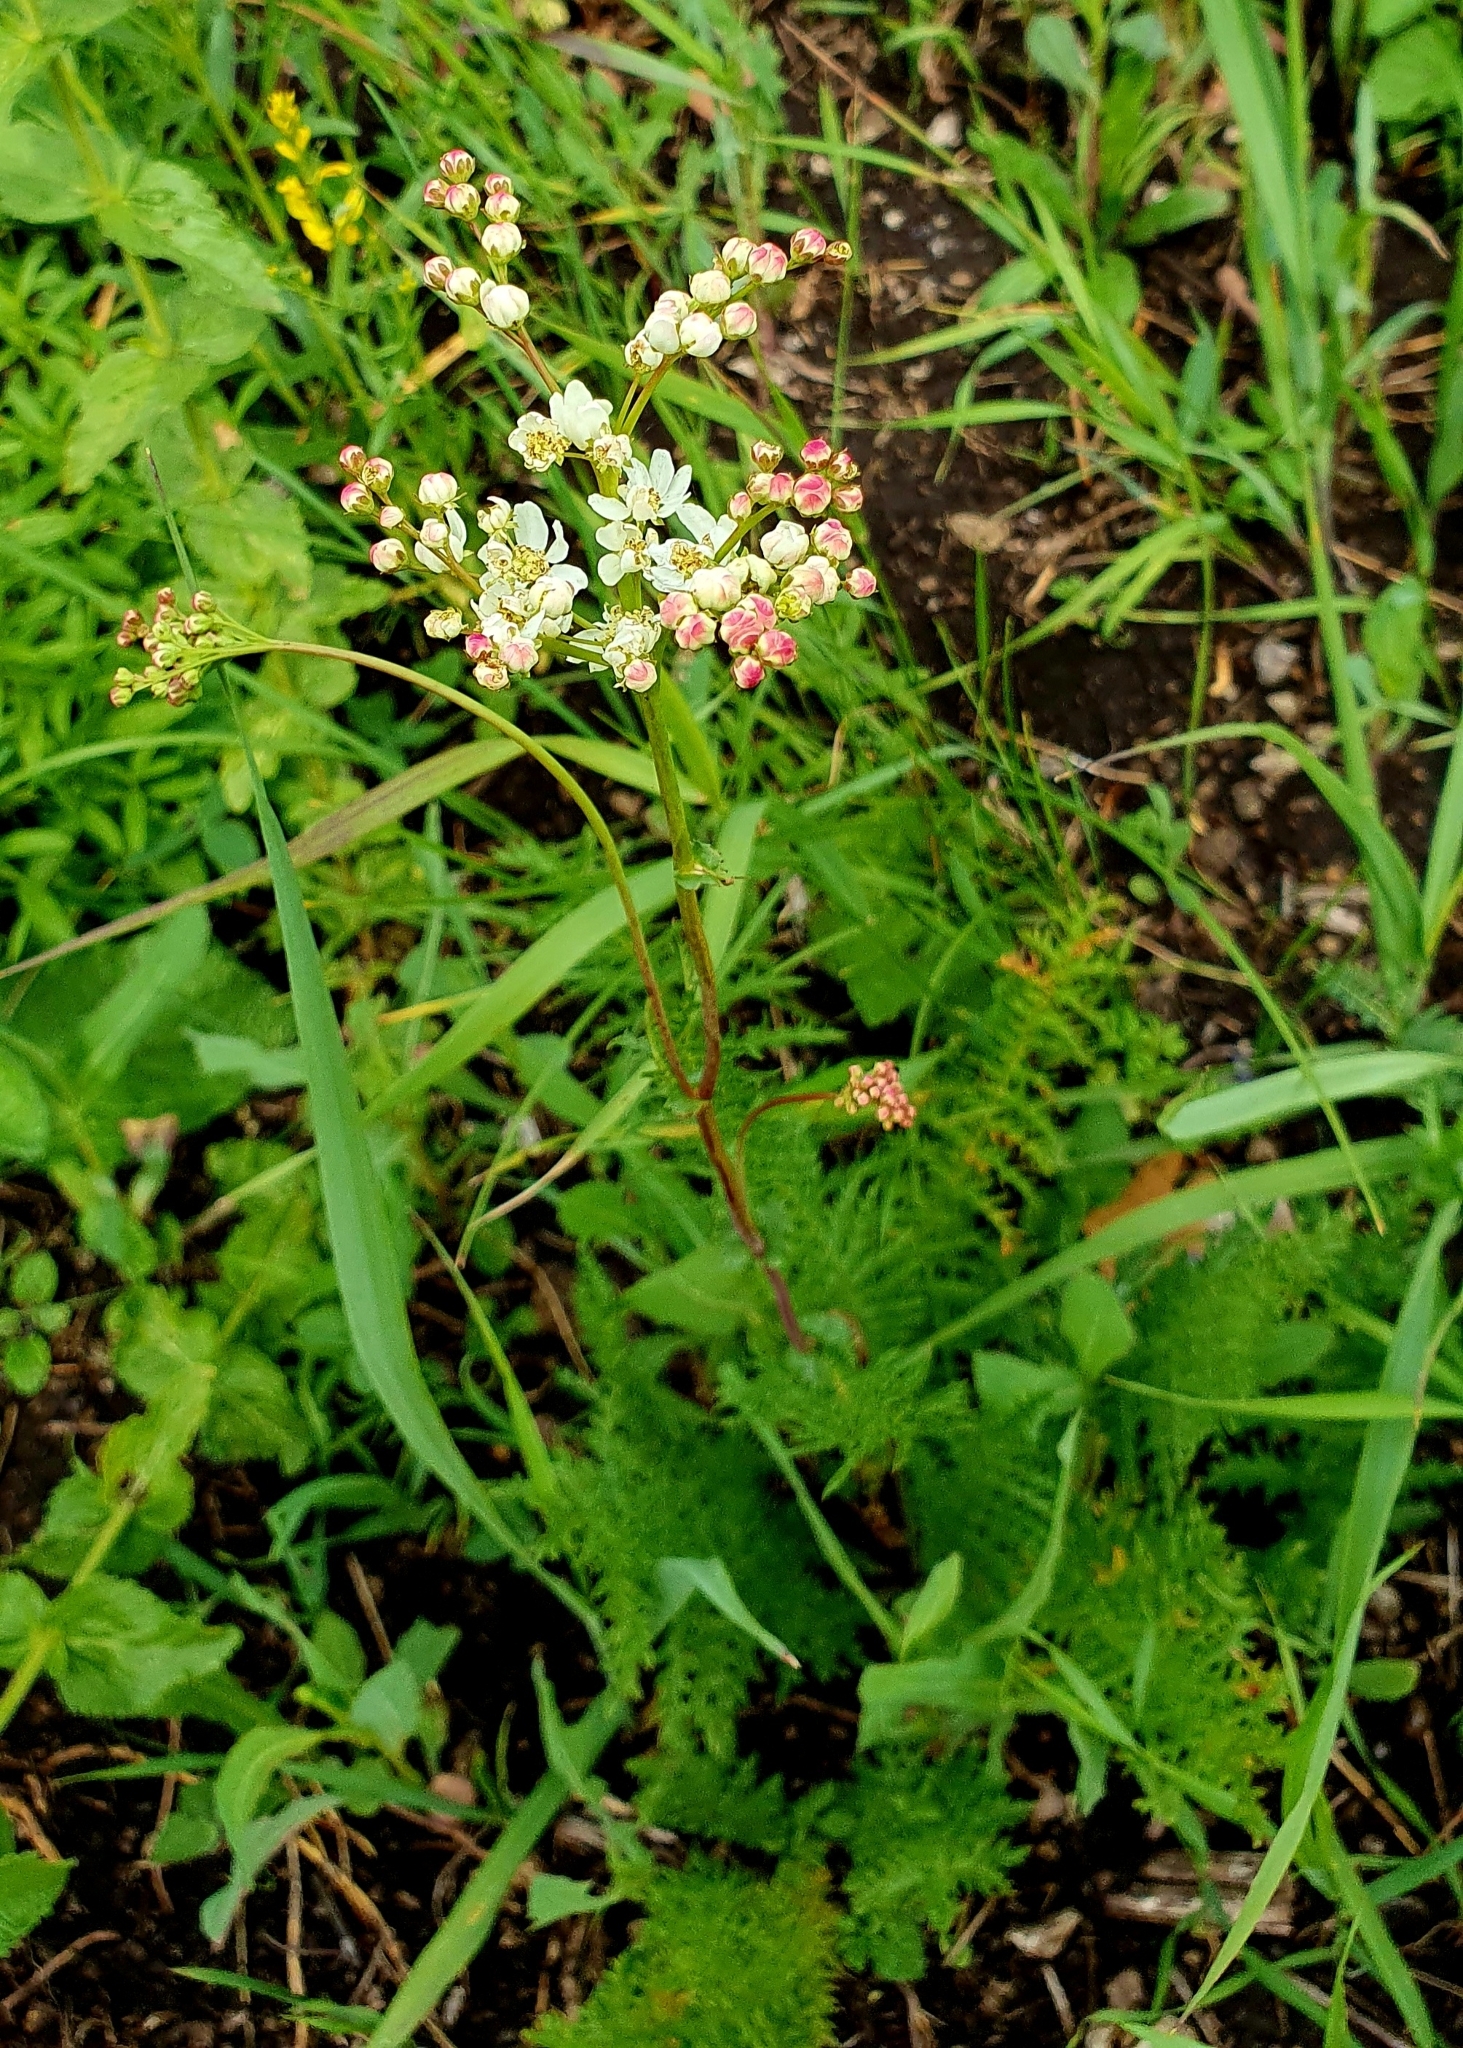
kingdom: Plantae
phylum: Tracheophyta
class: Magnoliopsida
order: Rosales
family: Rosaceae
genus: Filipendula
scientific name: Filipendula vulgaris
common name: Dropwort
